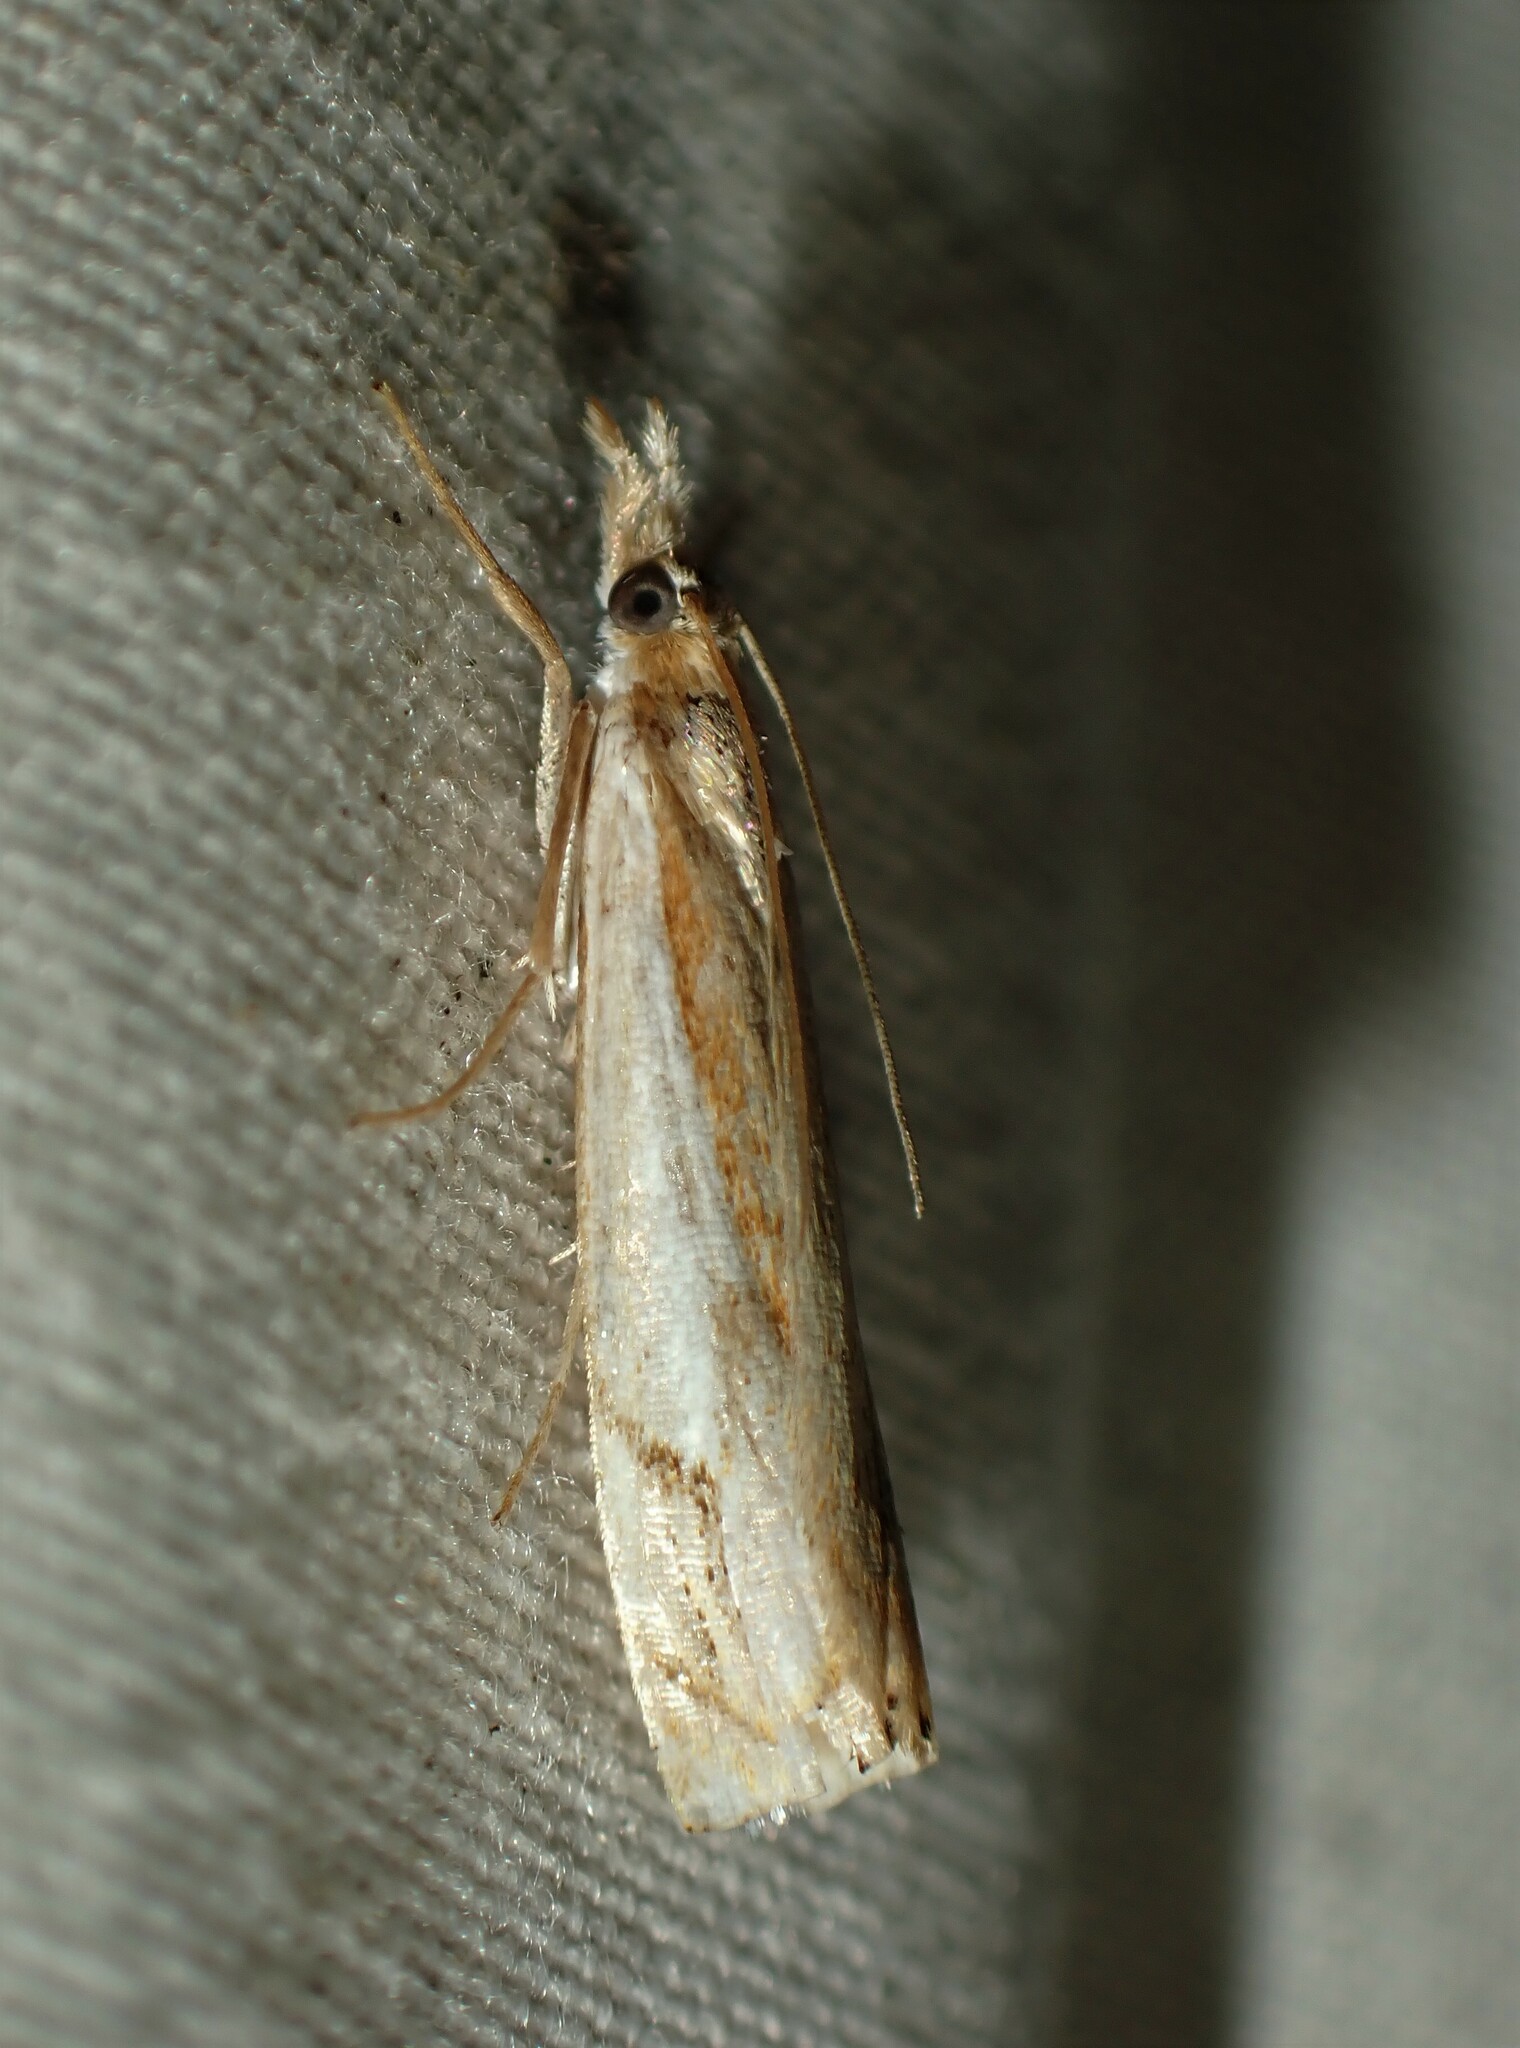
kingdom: Animalia
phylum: Arthropoda
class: Insecta
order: Lepidoptera
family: Crambidae
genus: Crambus
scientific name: Crambus agitatellus
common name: Double-banded grass-veneer
